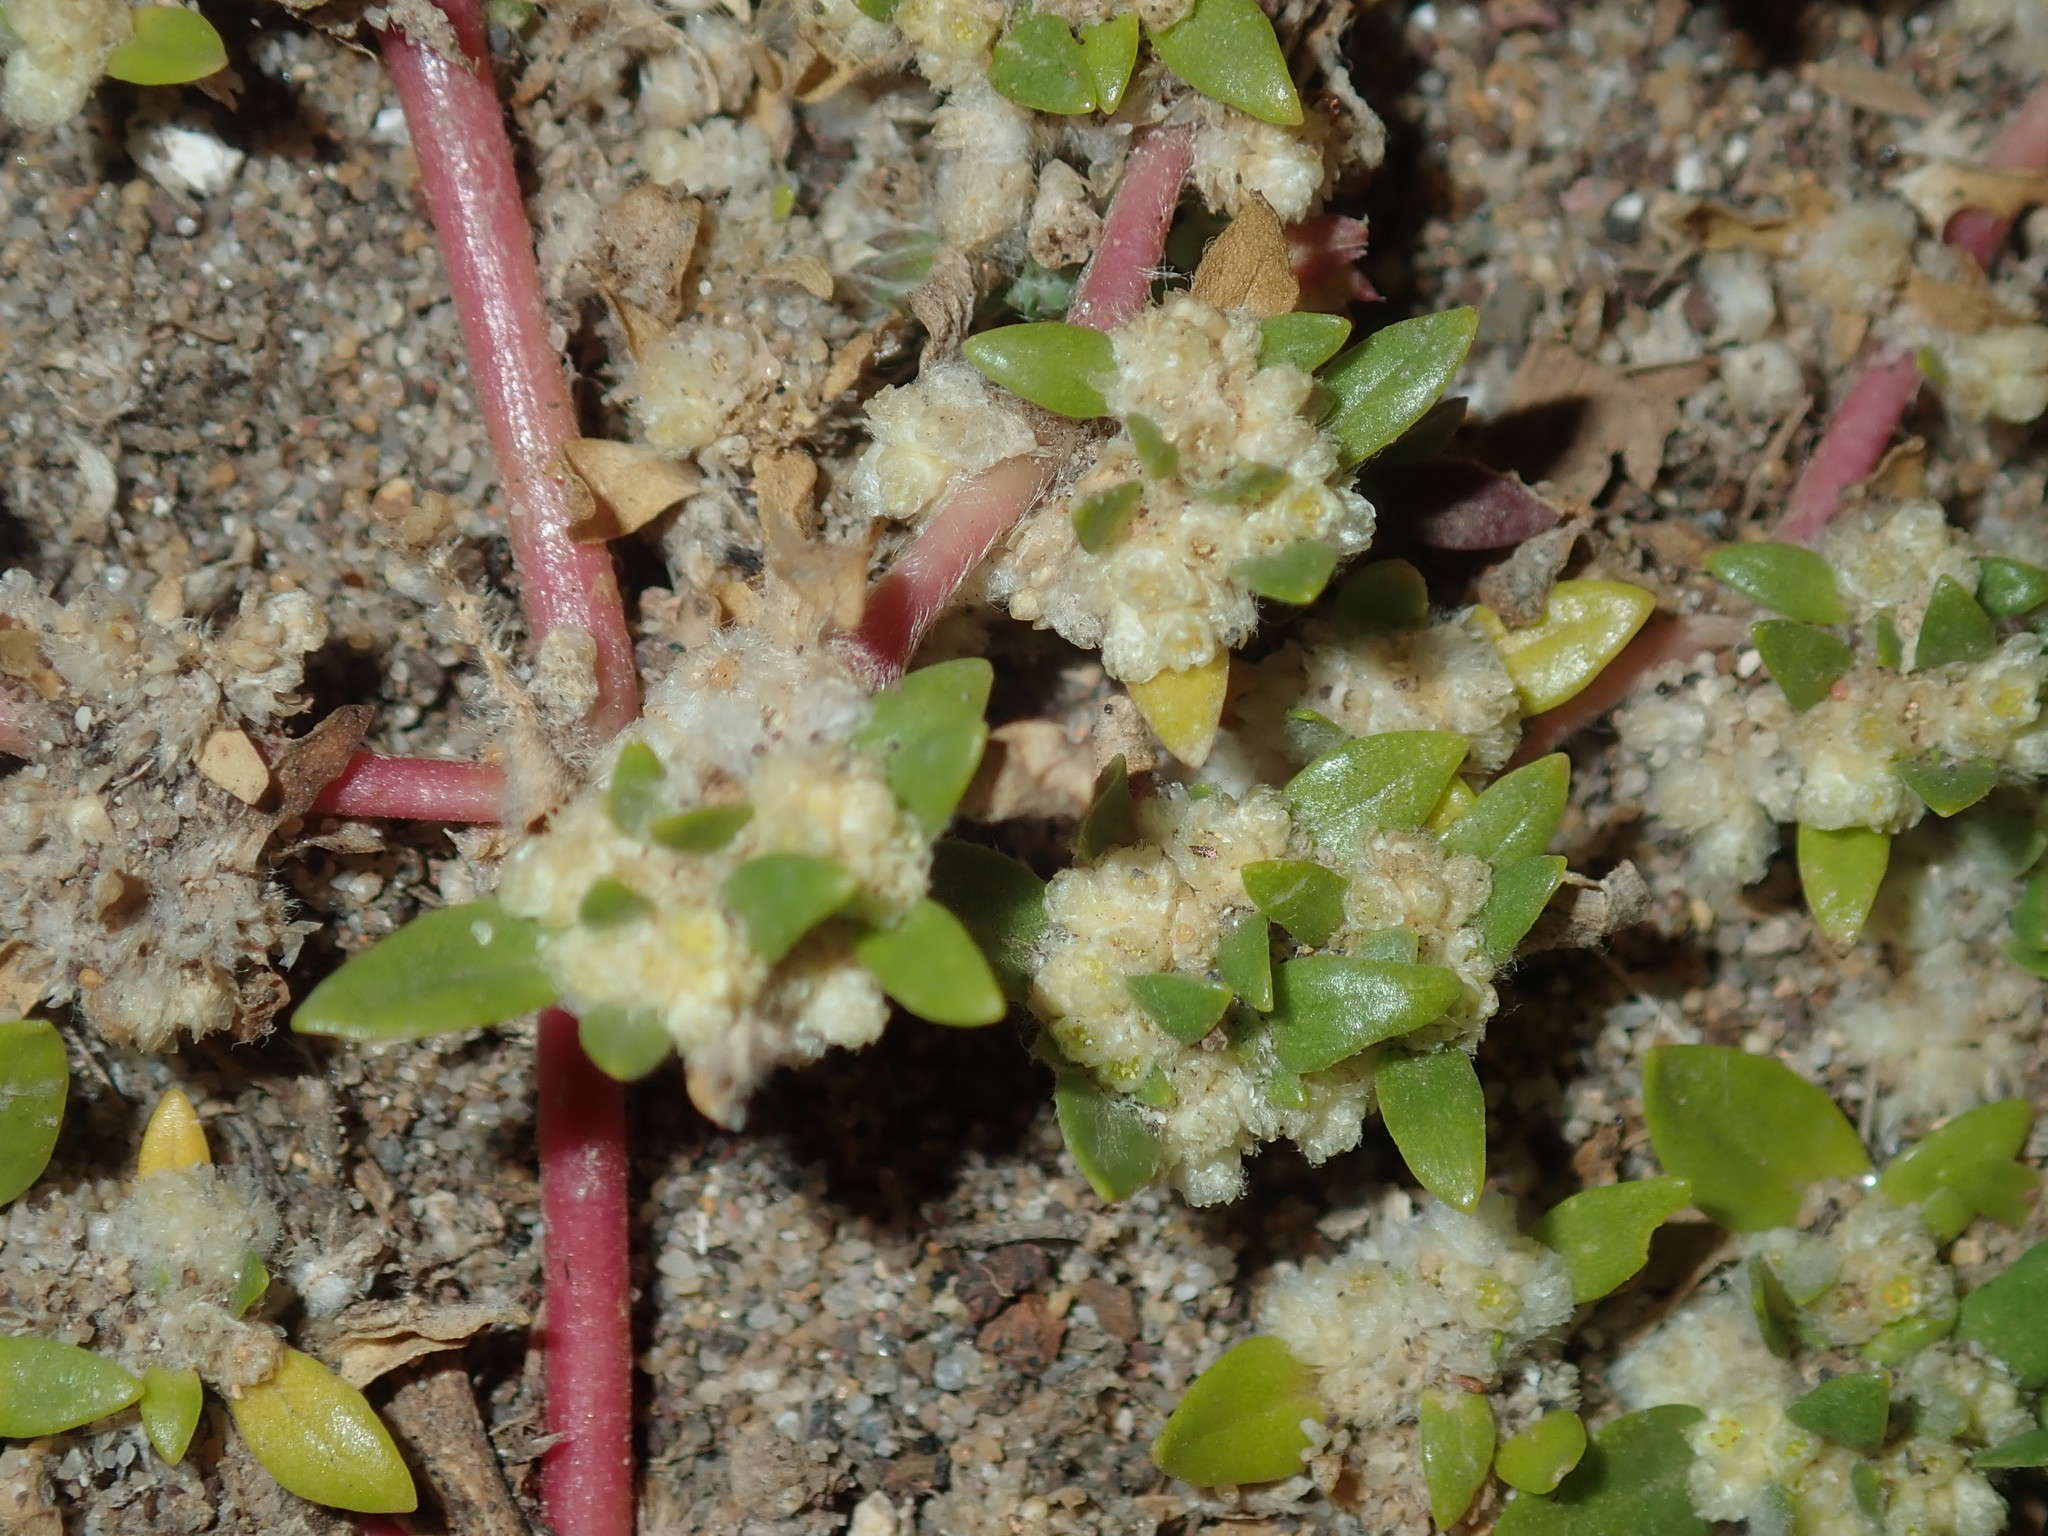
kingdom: Plantae
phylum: Tracheophyta
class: Magnoliopsida
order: Caryophyllales
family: Amaranthaceae
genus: Guilleminea
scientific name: Guilleminea densa
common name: Small matweed
